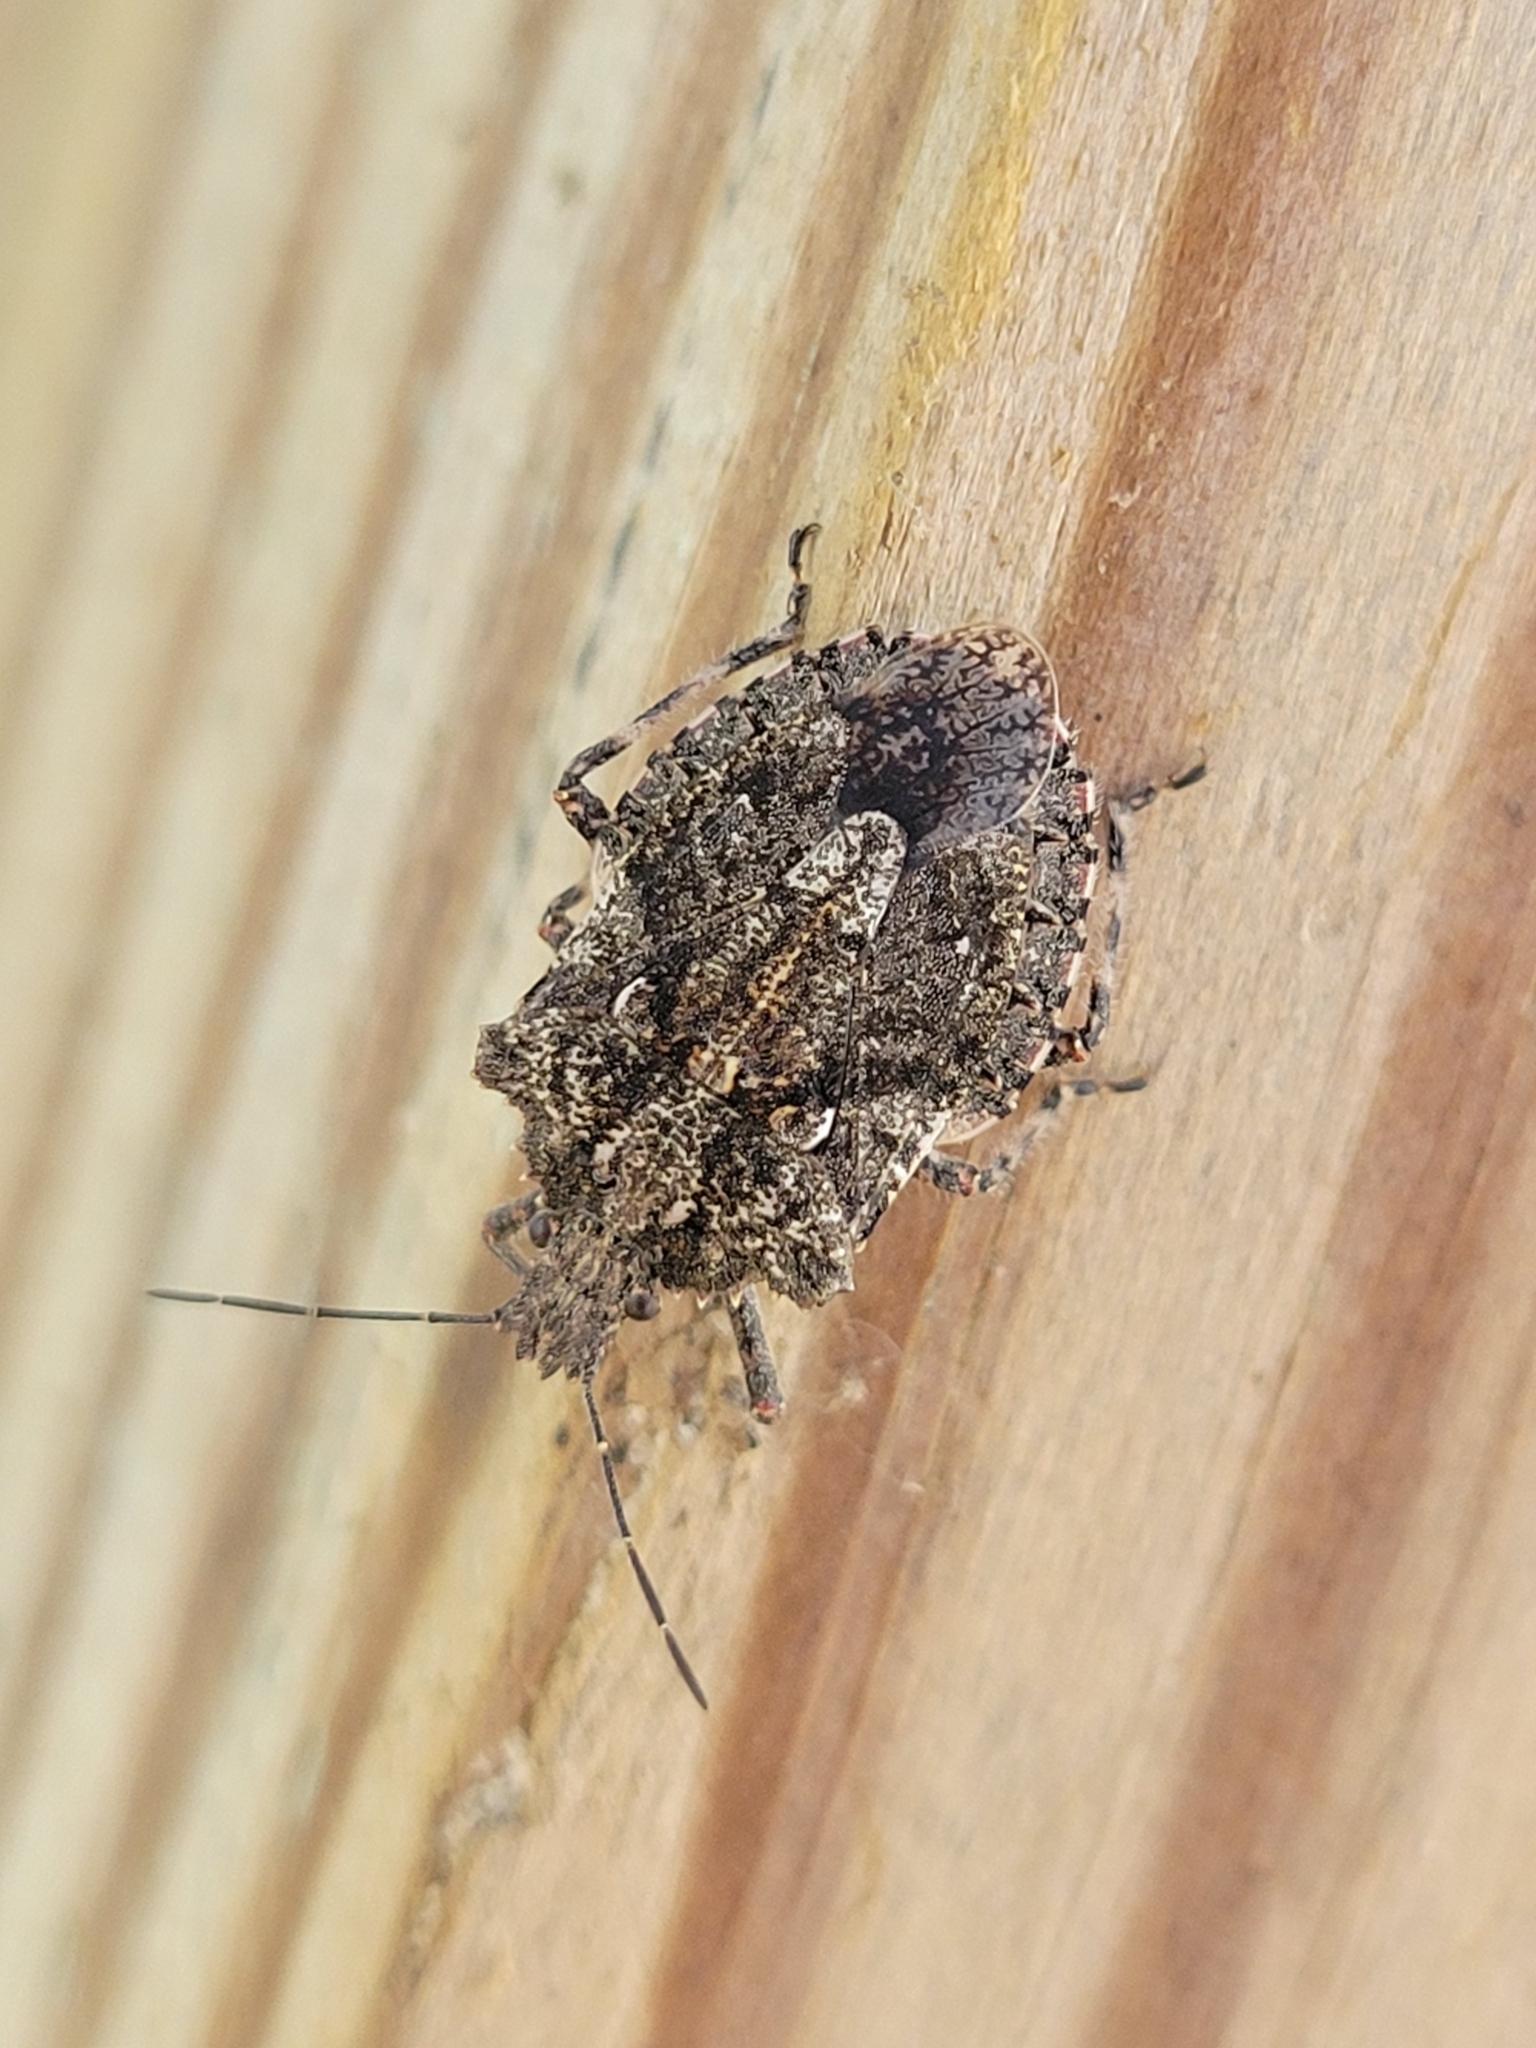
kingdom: Animalia
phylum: Arthropoda
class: Insecta
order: Hemiptera
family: Pentatomidae
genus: Brochymena
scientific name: Brochymena arborea
